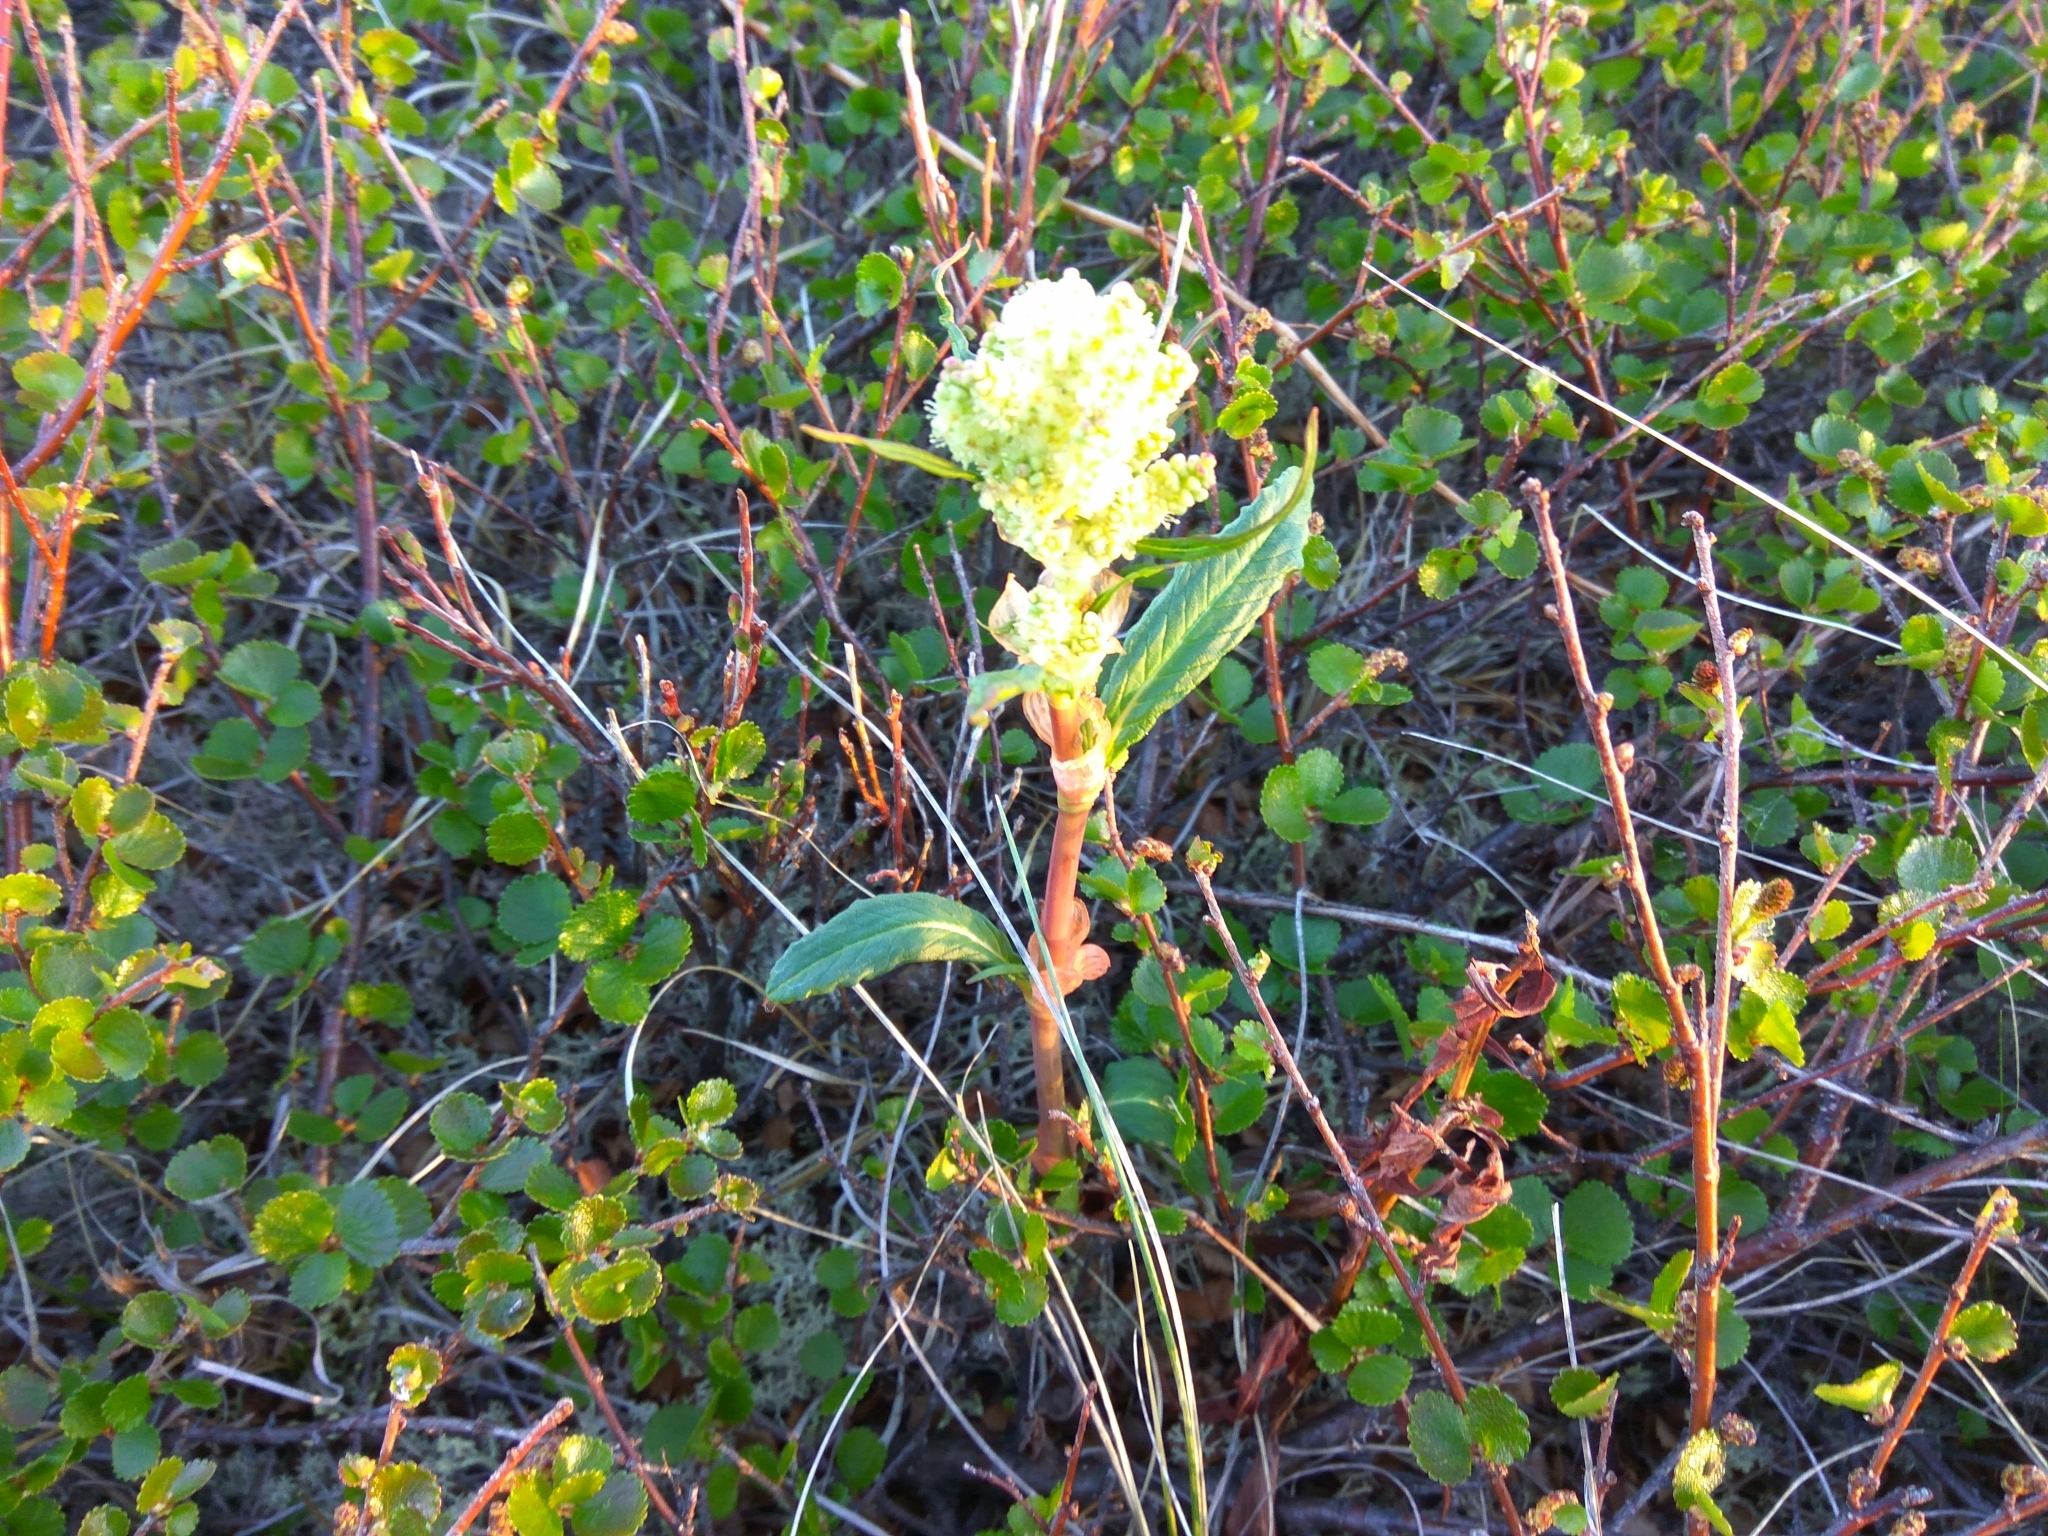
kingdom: Plantae
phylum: Tracheophyta
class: Magnoliopsida
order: Caryophyllales
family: Polygonaceae
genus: Koenigia
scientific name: Koenigia tripterocarpa
